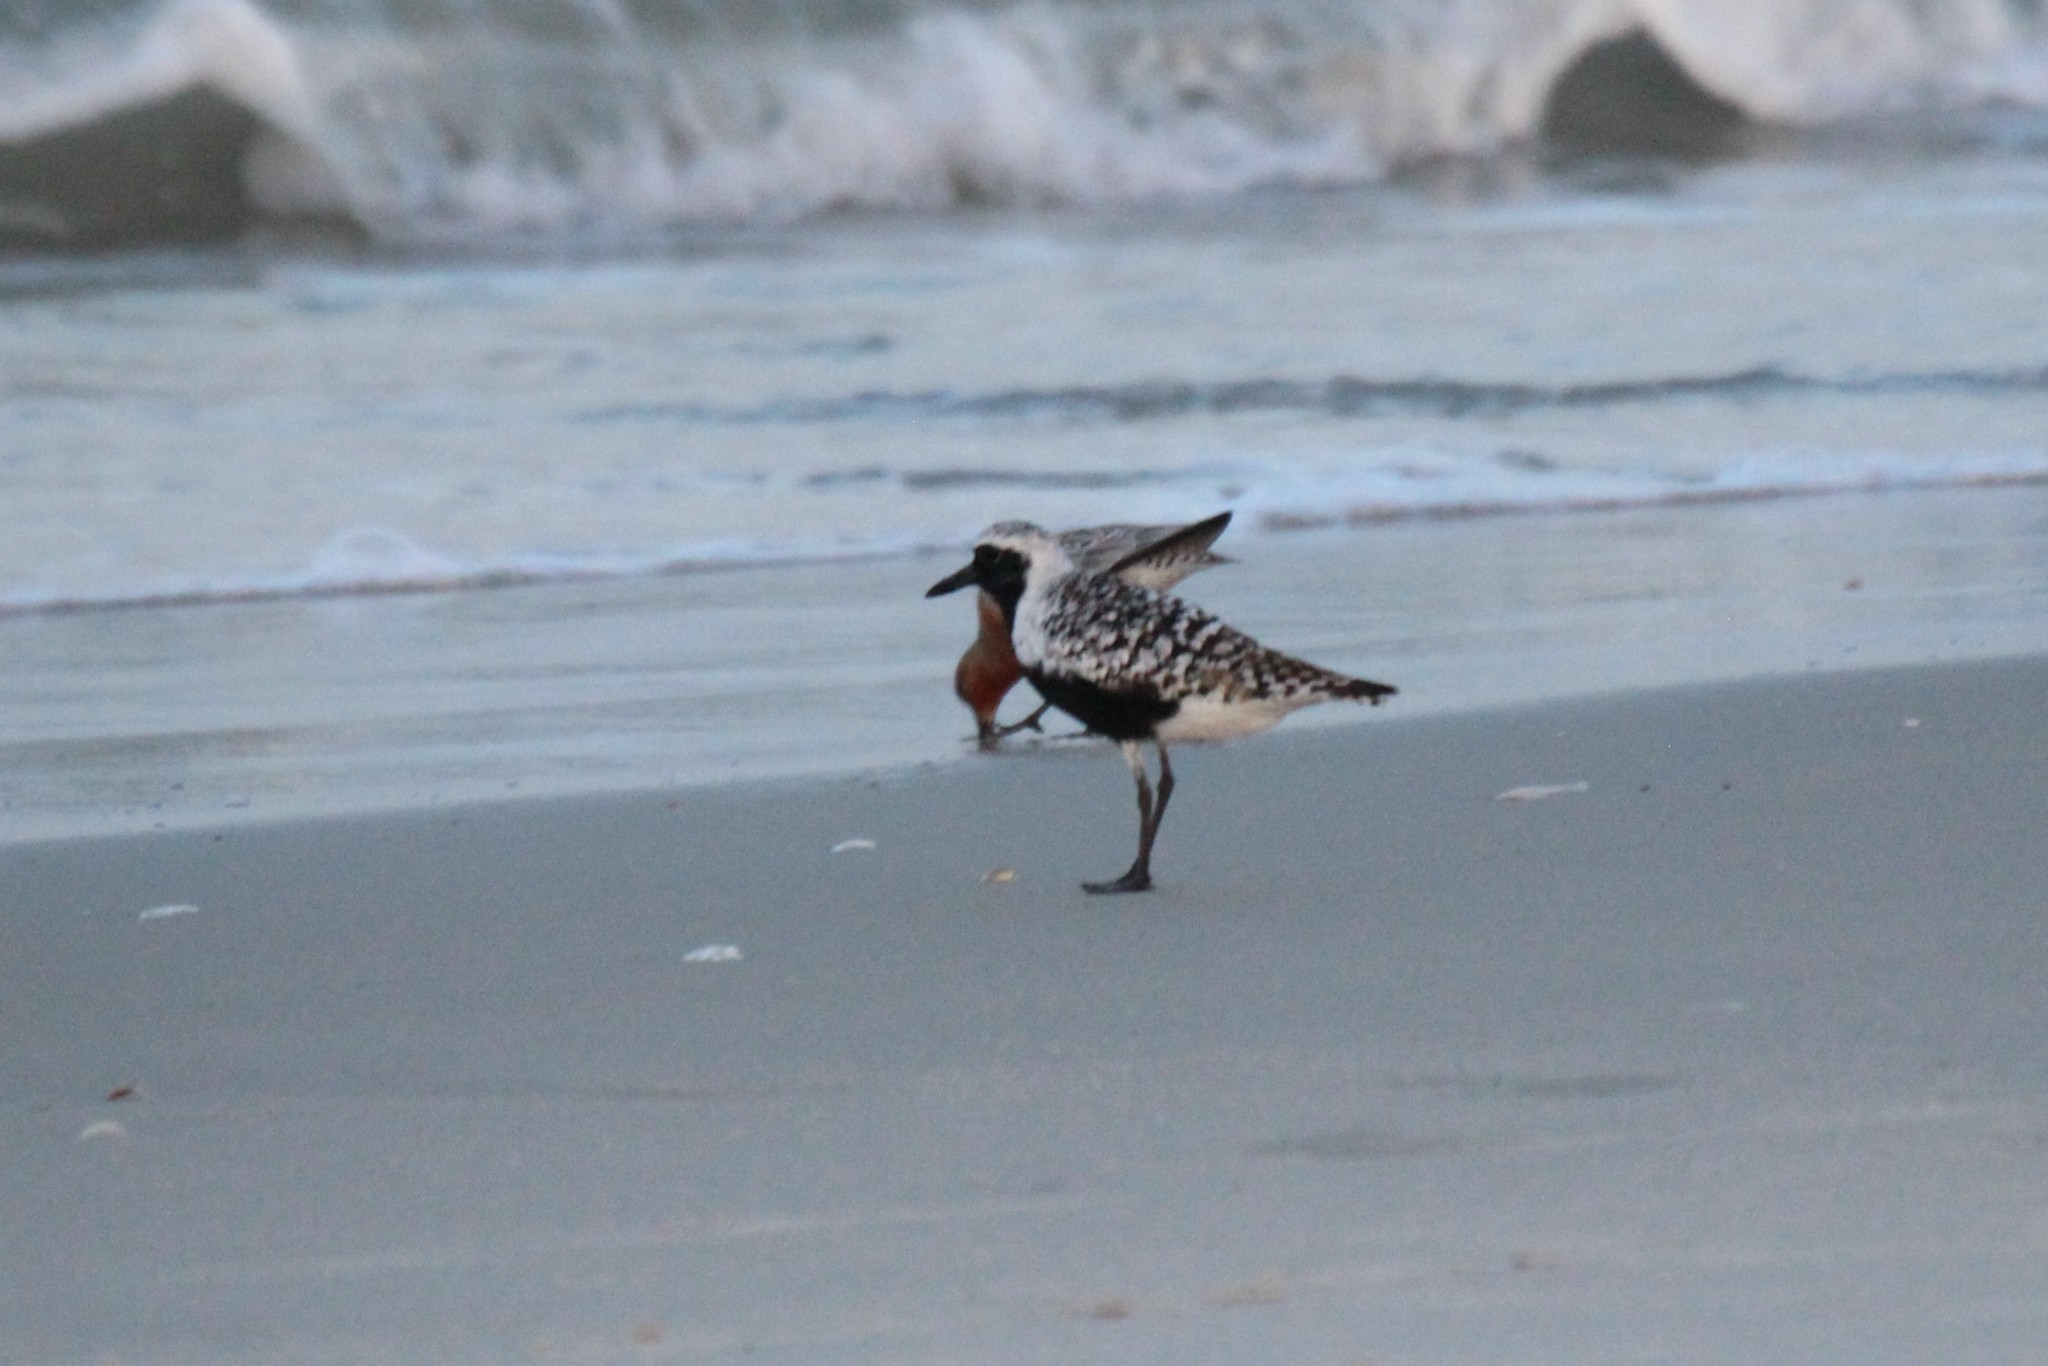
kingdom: Animalia
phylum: Chordata
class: Aves
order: Charadriiformes
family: Charadriidae
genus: Pluvialis
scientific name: Pluvialis squatarola
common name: Grey plover
